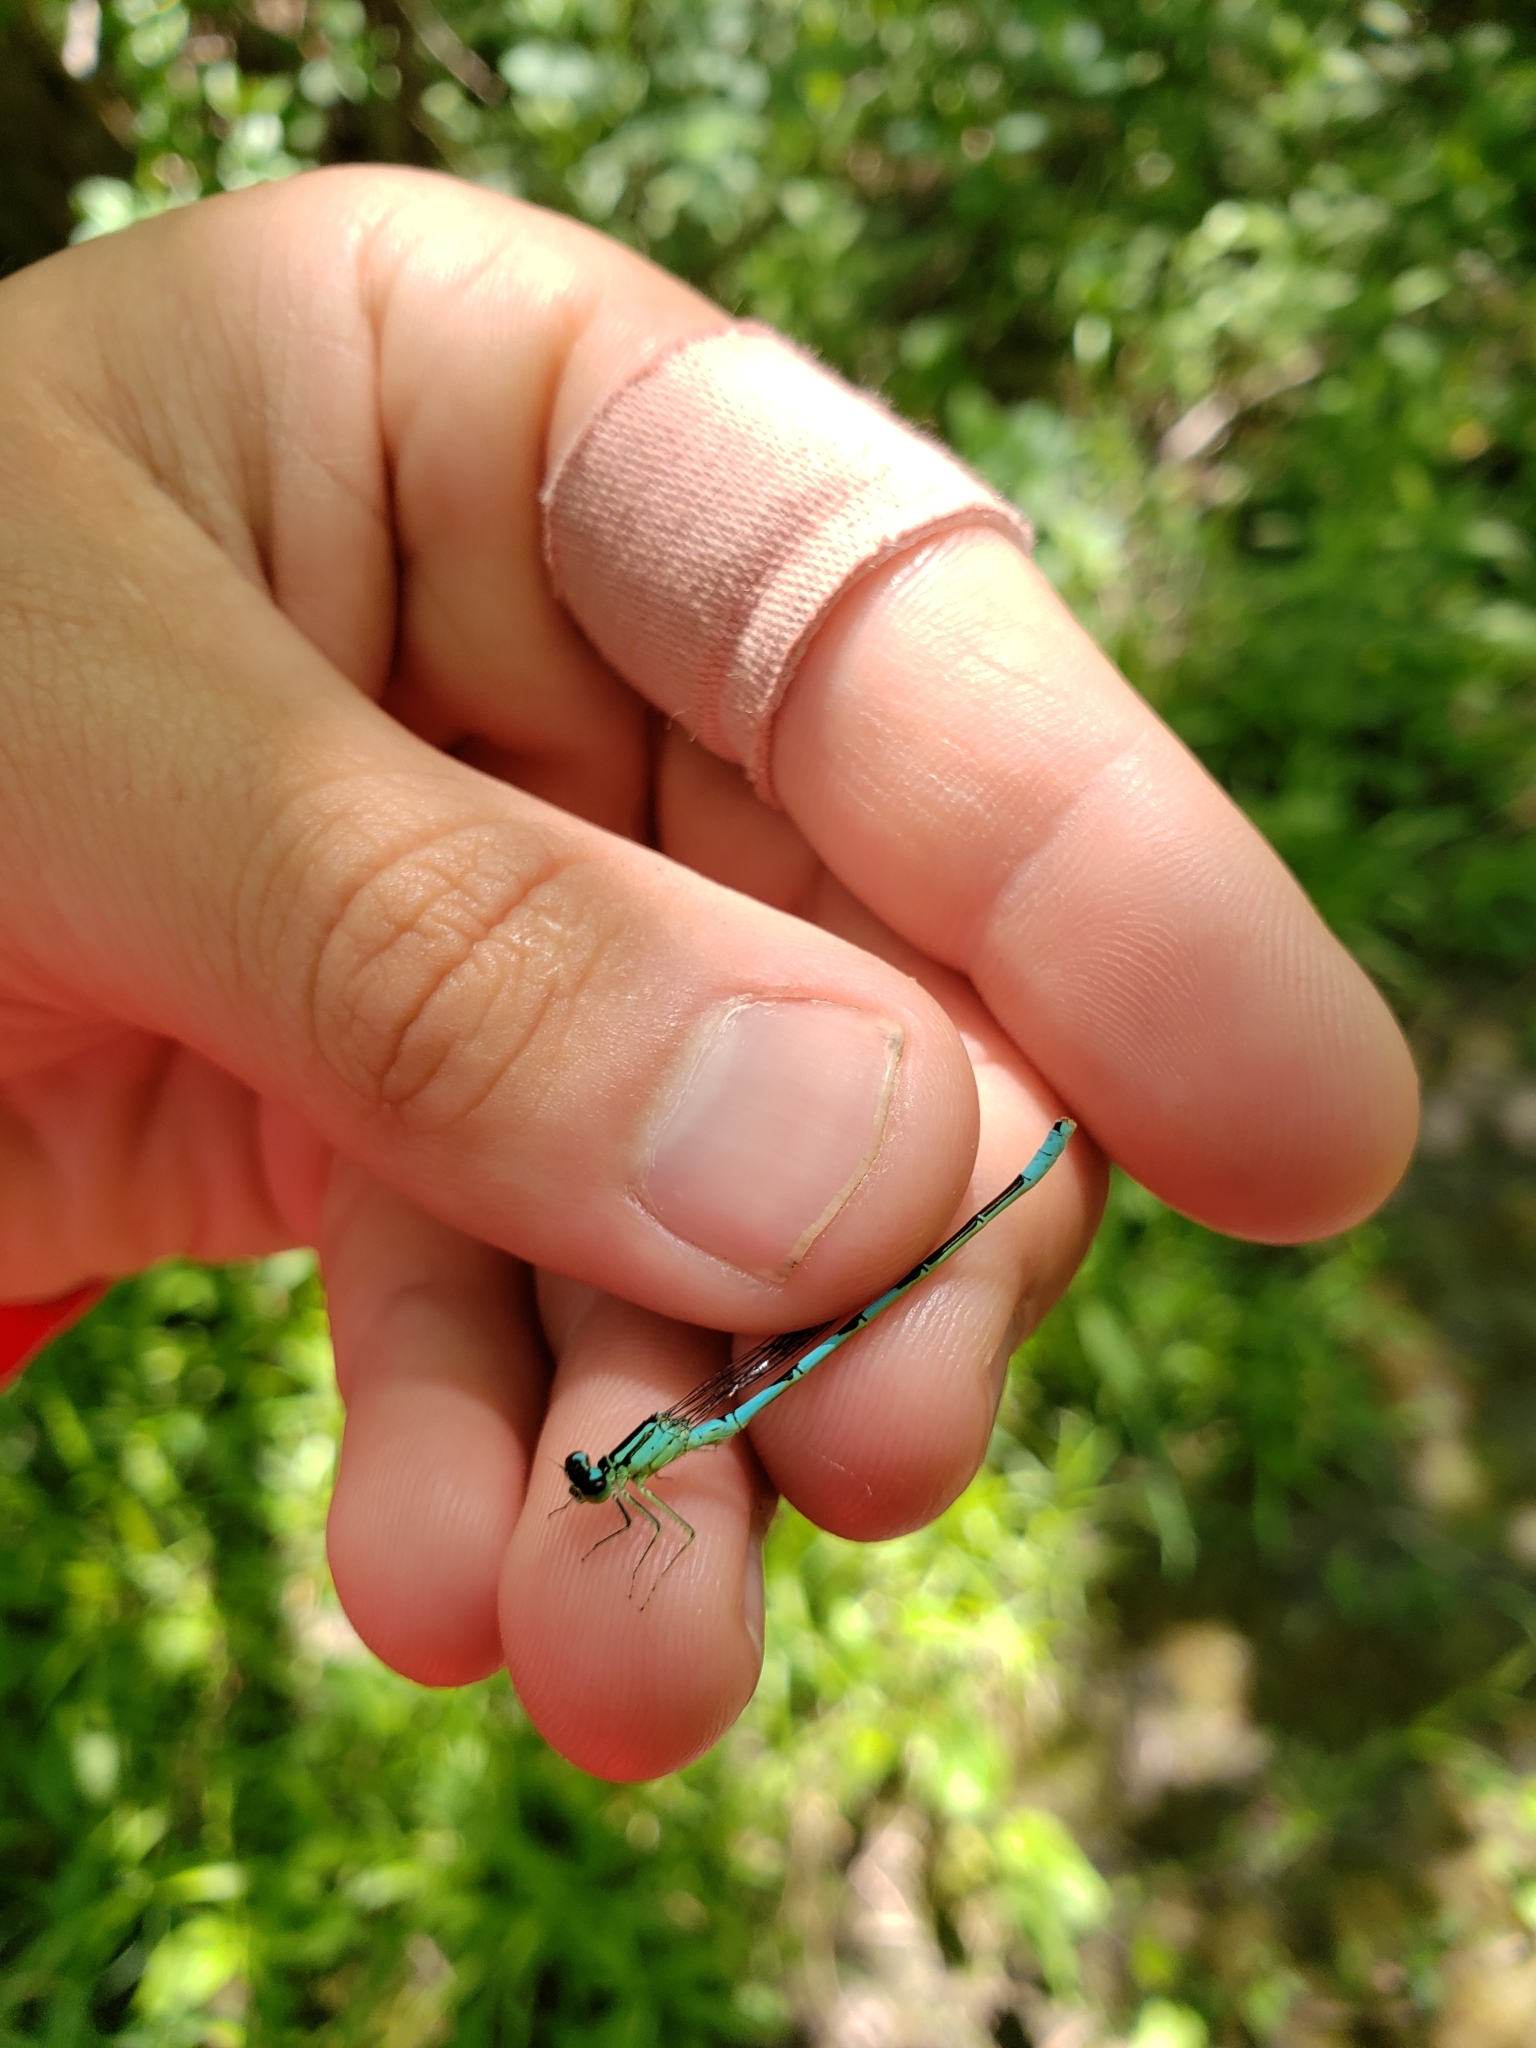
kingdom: Animalia
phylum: Arthropoda
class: Insecta
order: Odonata
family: Coenagrionidae
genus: Coenagrion
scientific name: Coenagrion resolutum
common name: Taiga bluet
